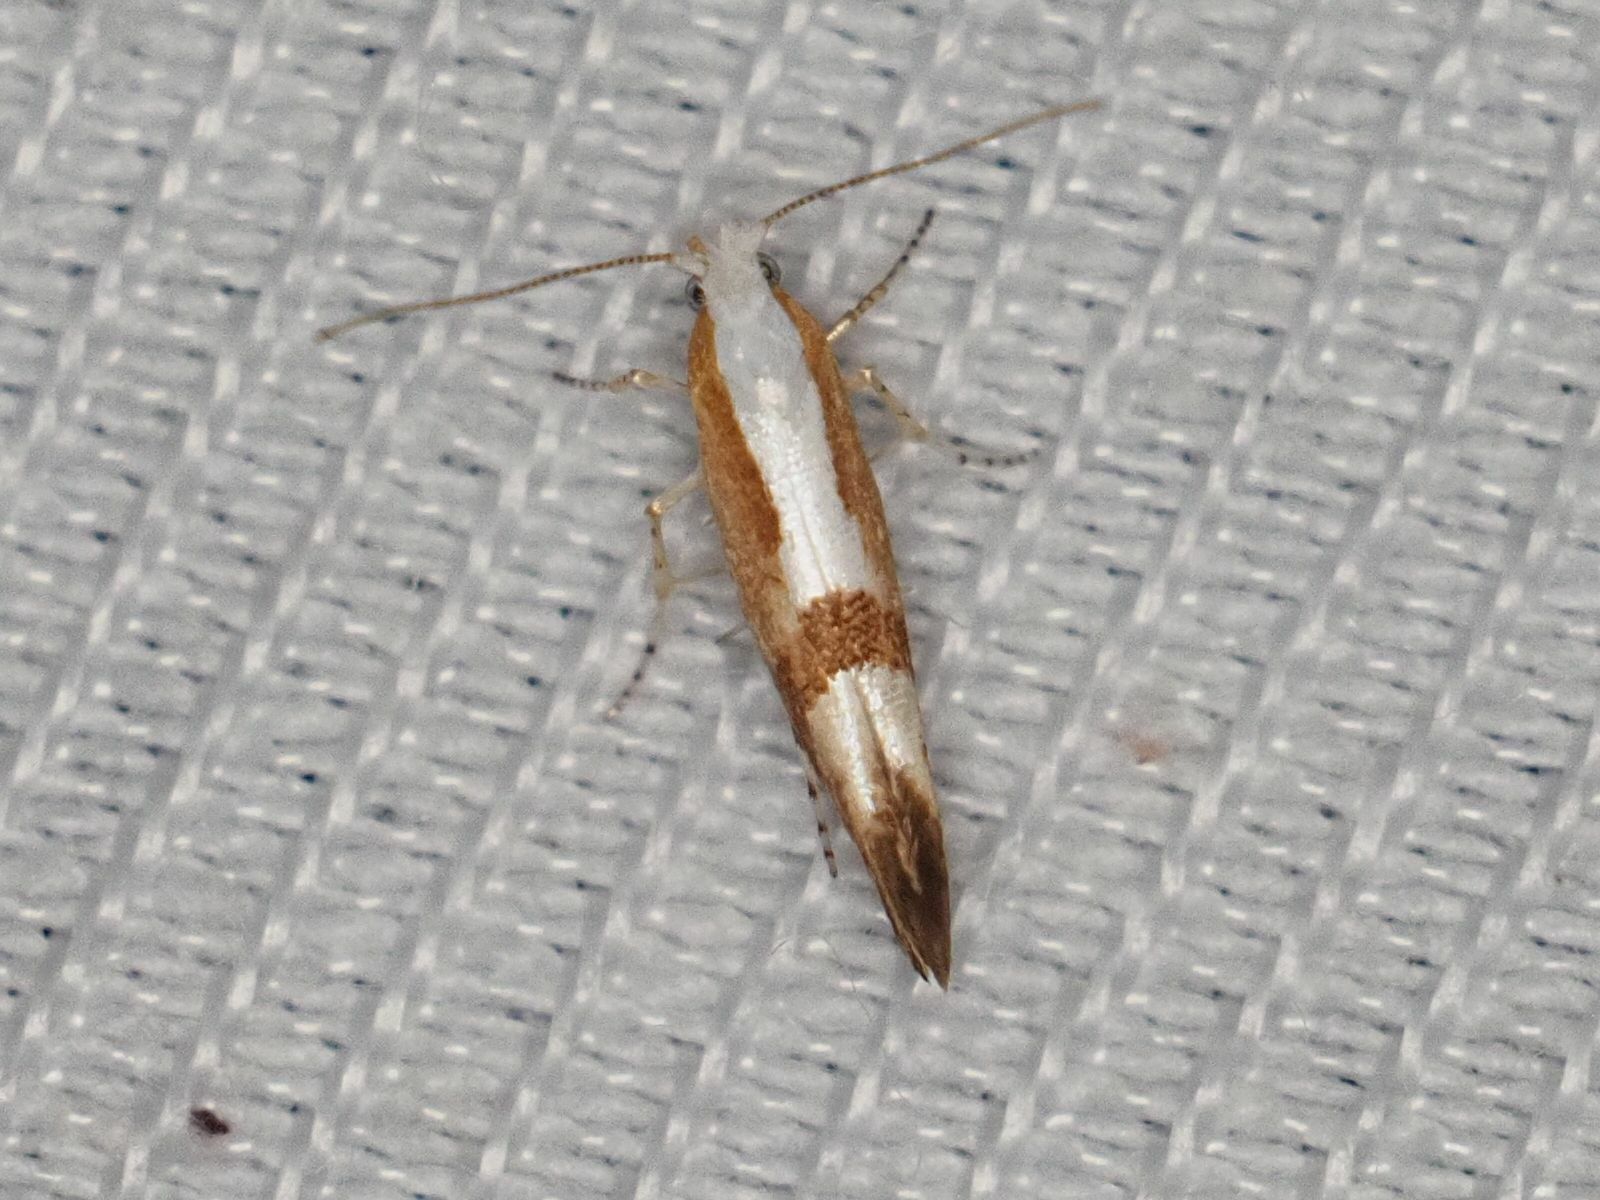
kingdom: Animalia
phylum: Arthropoda
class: Insecta
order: Lepidoptera
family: Argyresthiidae
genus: Argyresthia
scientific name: Argyresthia pruniella
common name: Cherry fruit moth
